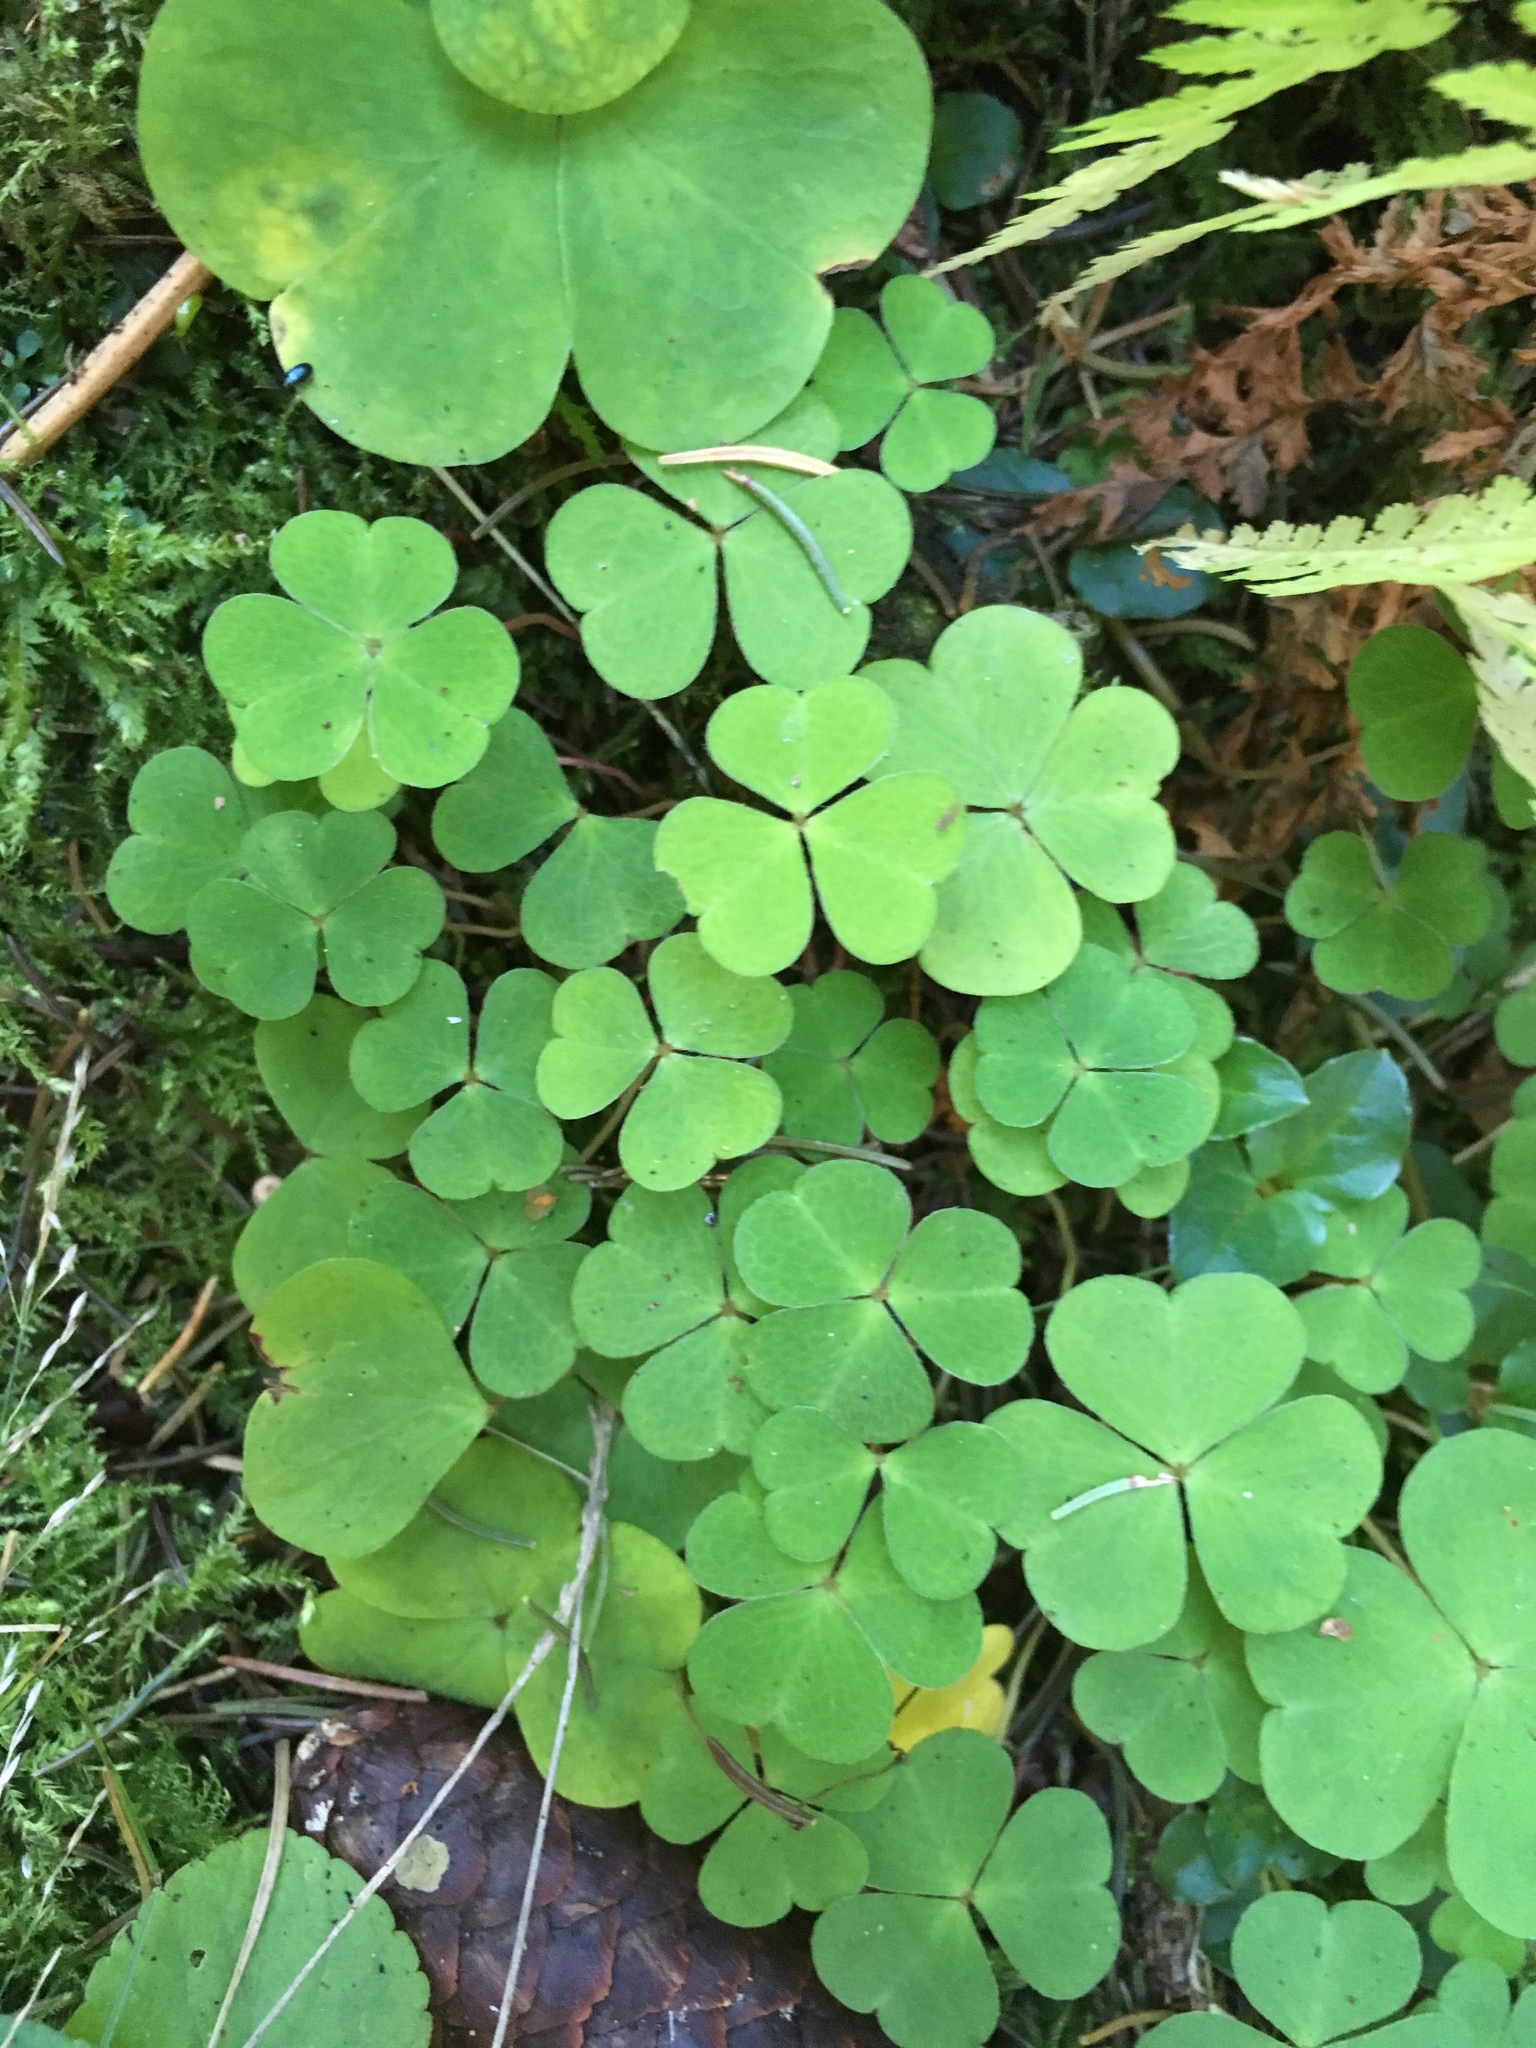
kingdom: Plantae
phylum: Tracheophyta
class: Magnoliopsida
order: Oxalidales
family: Oxalidaceae
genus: Oxalis
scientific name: Oxalis acetosella
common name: Wood-sorrel
